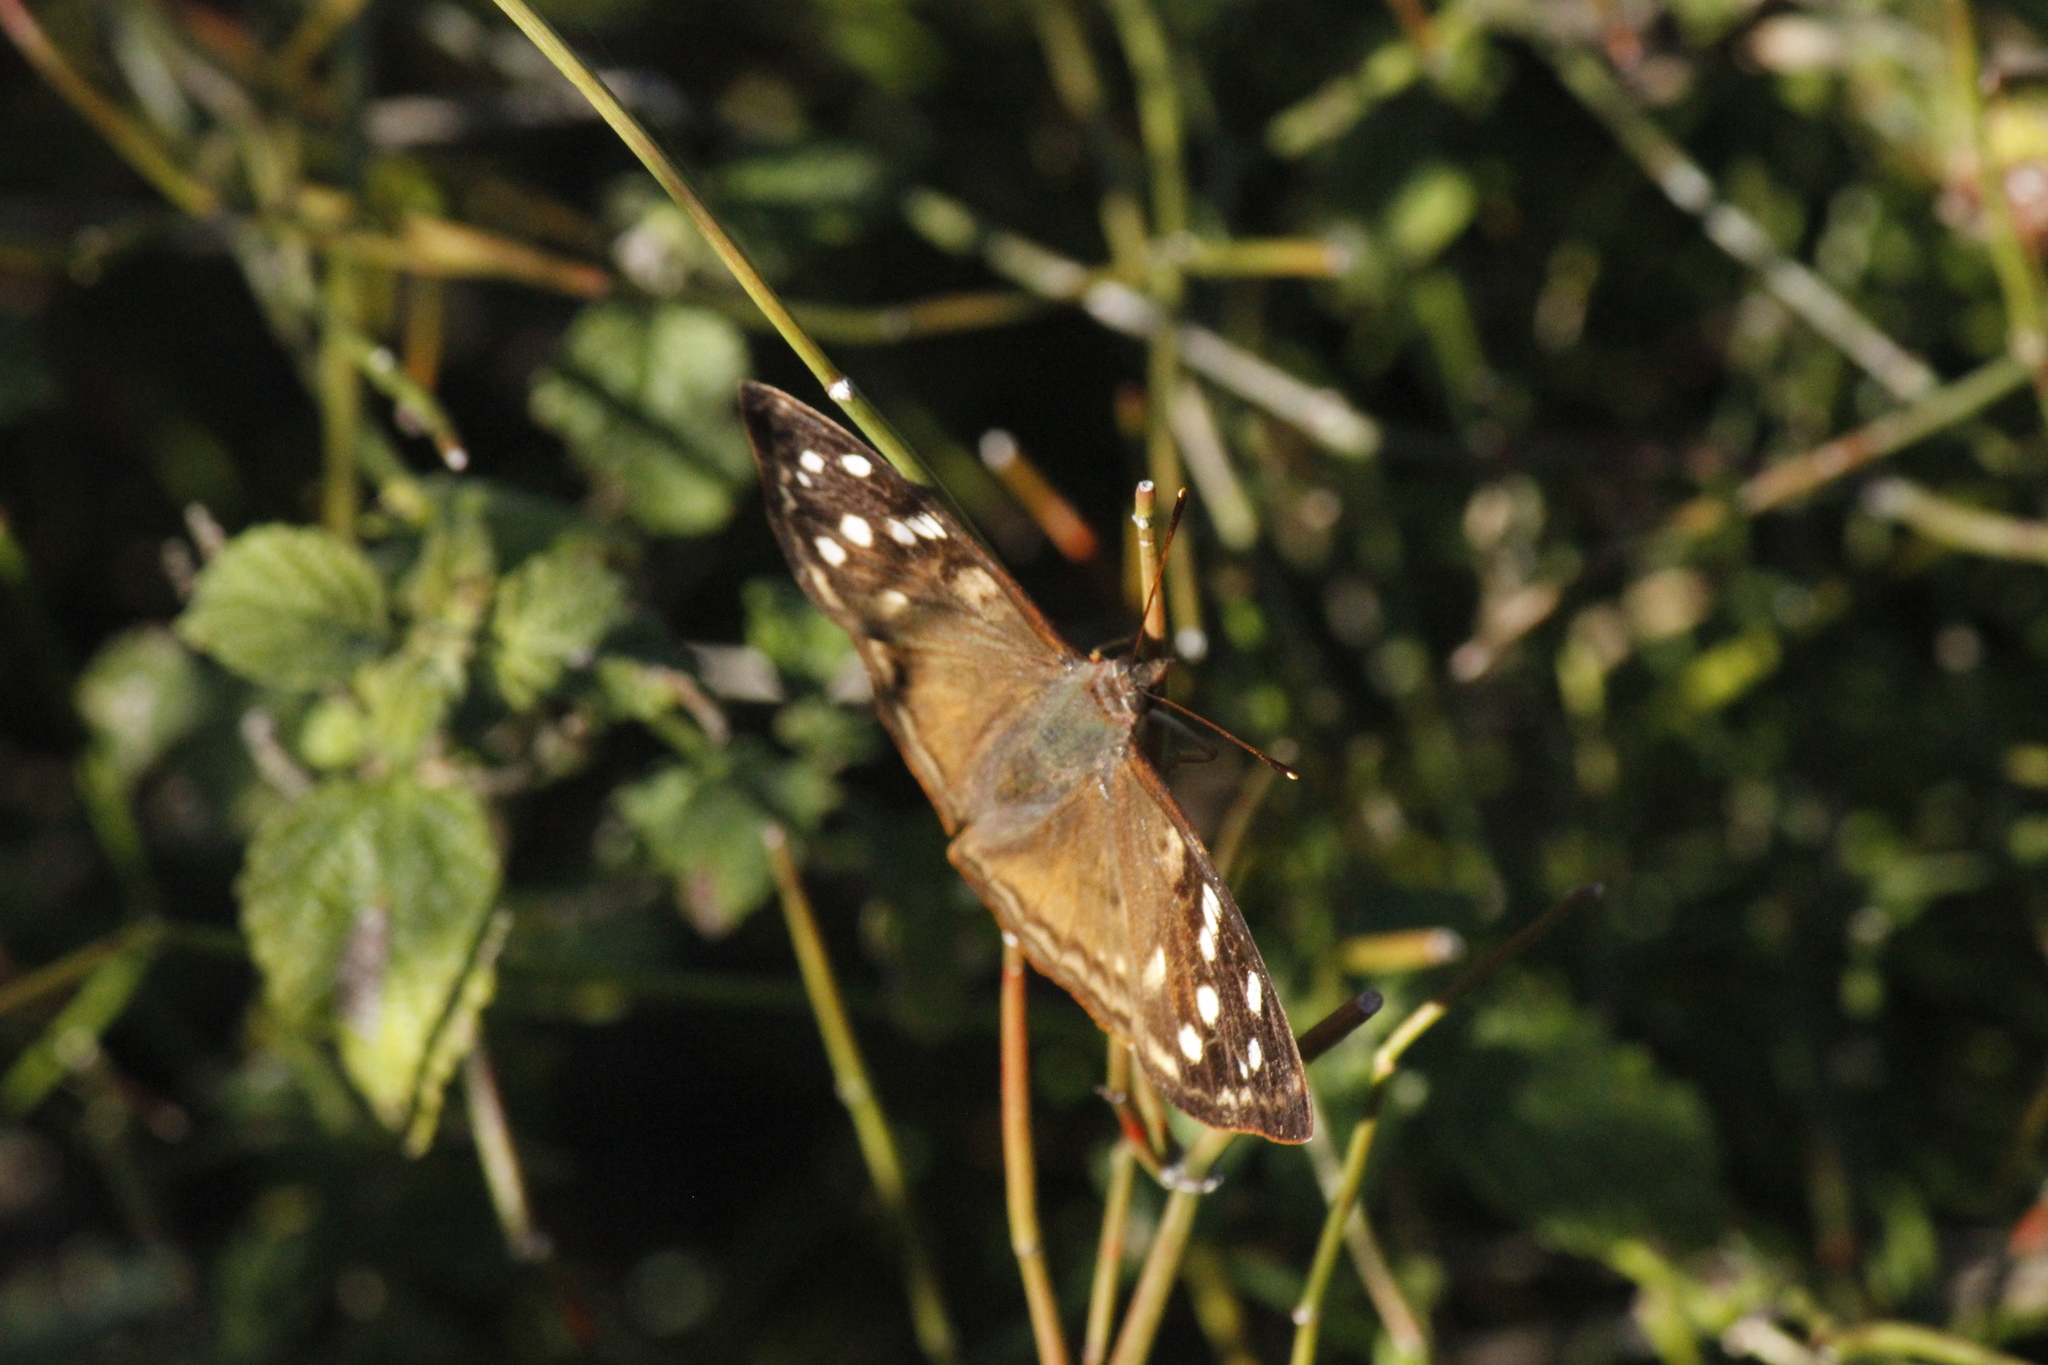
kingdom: Animalia
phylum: Arthropoda
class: Insecta
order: Lepidoptera
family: Nymphalidae
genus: Doxocopa
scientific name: Doxocopa kallina
